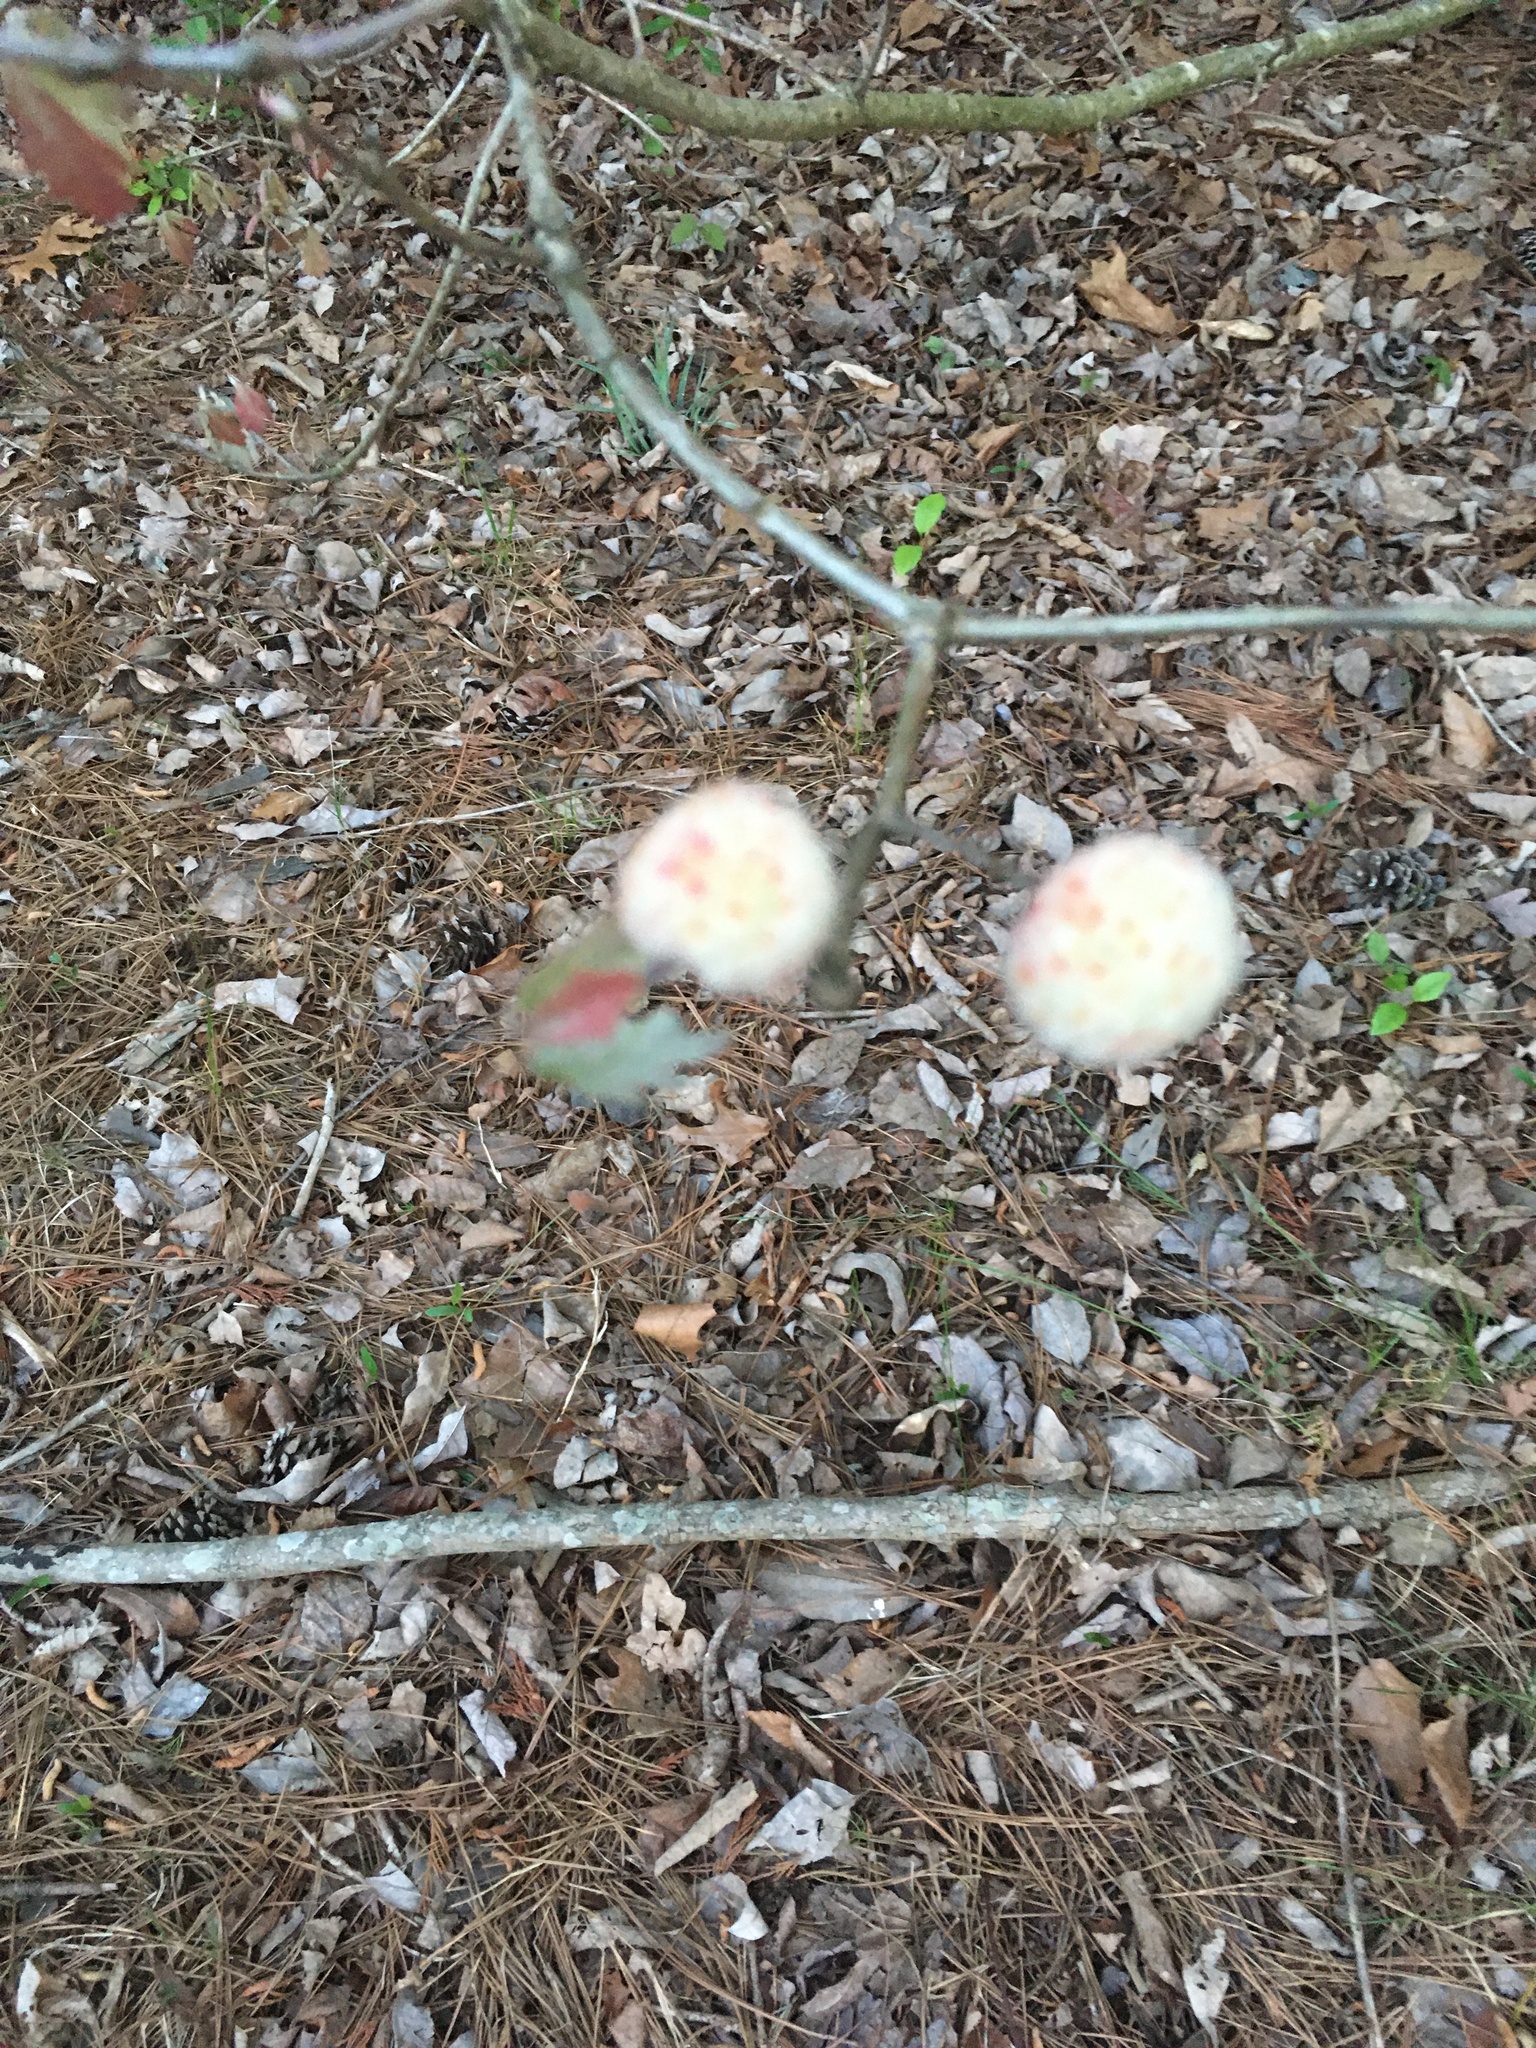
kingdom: Animalia
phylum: Arthropoda
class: Insecta
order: Hymenoptera
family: Cynipidae
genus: Callirhytis
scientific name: Callirhytis
